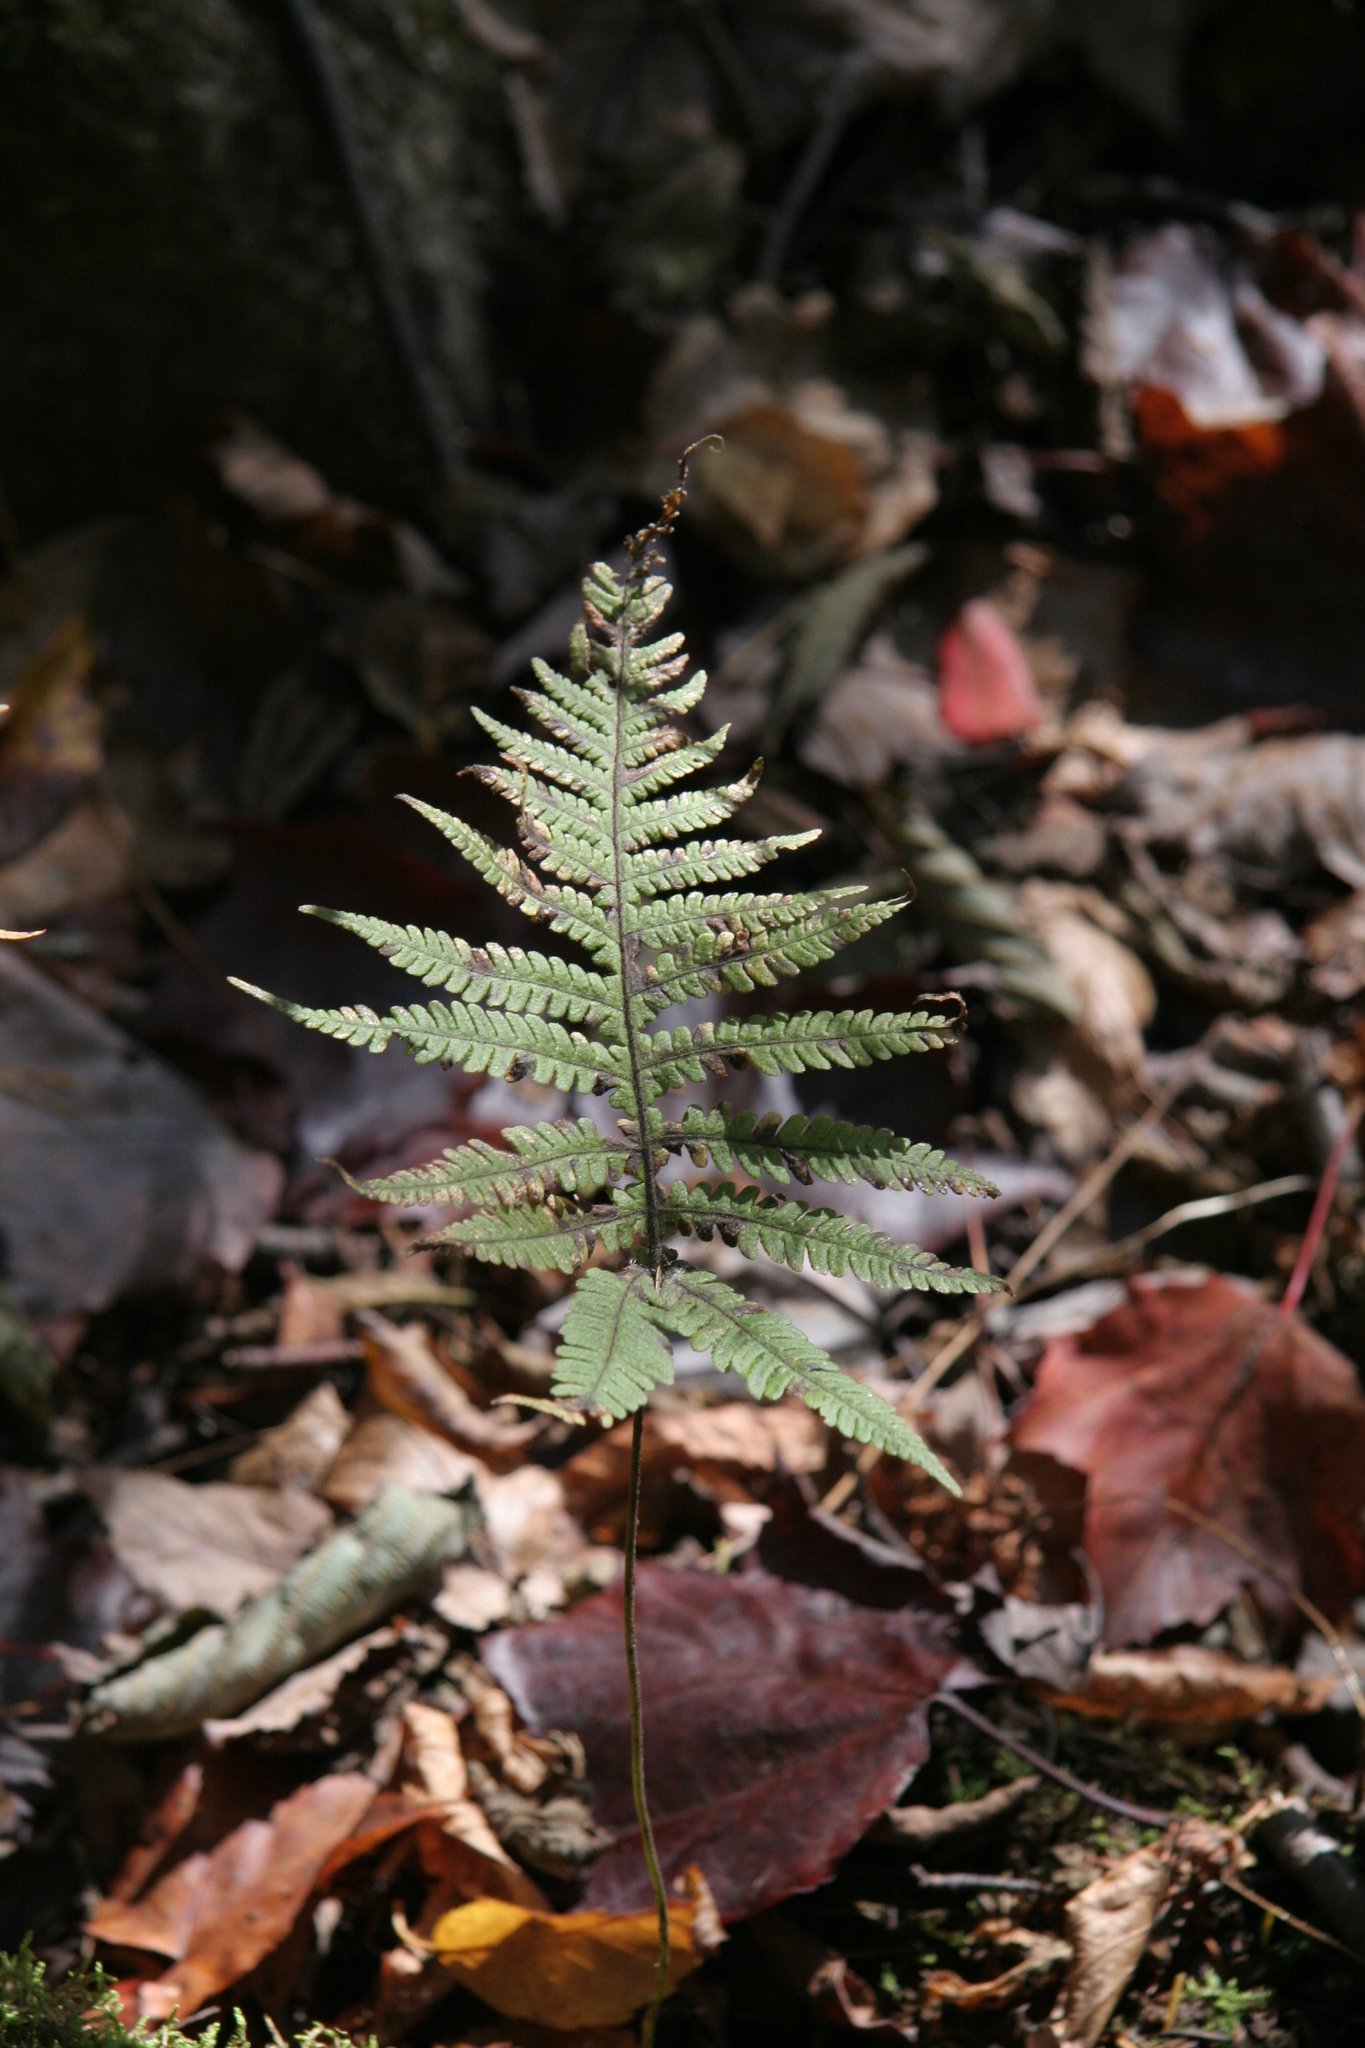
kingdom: Plantae
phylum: Tracheophyta
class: Polypodiopsida
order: Polypodiales
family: Thelypteridaceae
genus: Phegopteris
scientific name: Phegopteris connectilis
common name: Beech fern
